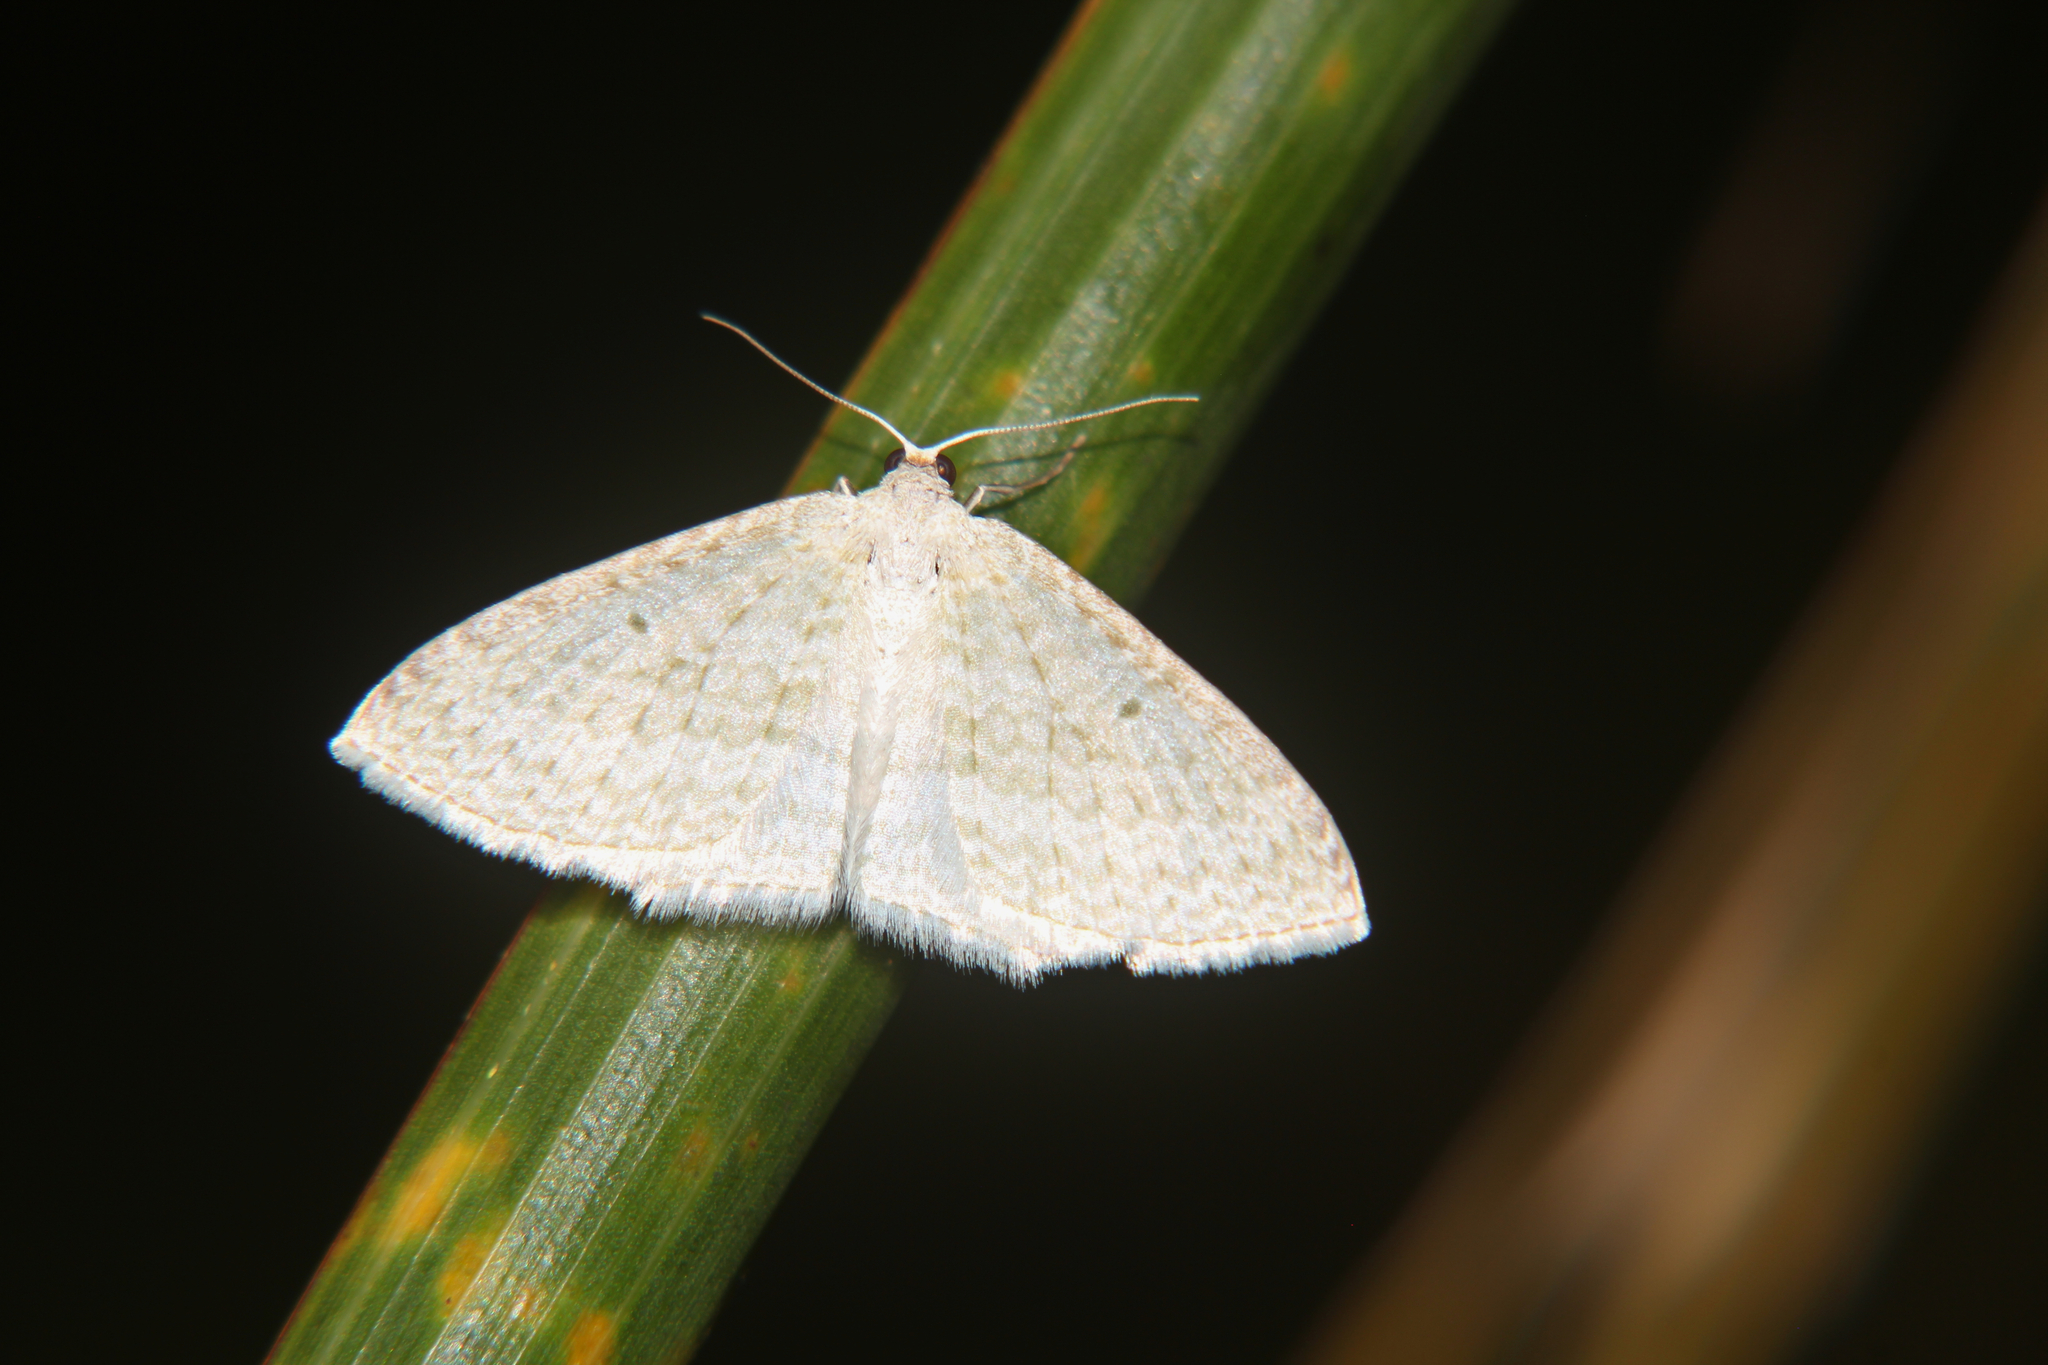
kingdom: Animalia
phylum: Arthropoda
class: Insecta
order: Lepidoptera
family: Geometridae
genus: Poecilasthena
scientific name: Poecilasthena pulchraria
